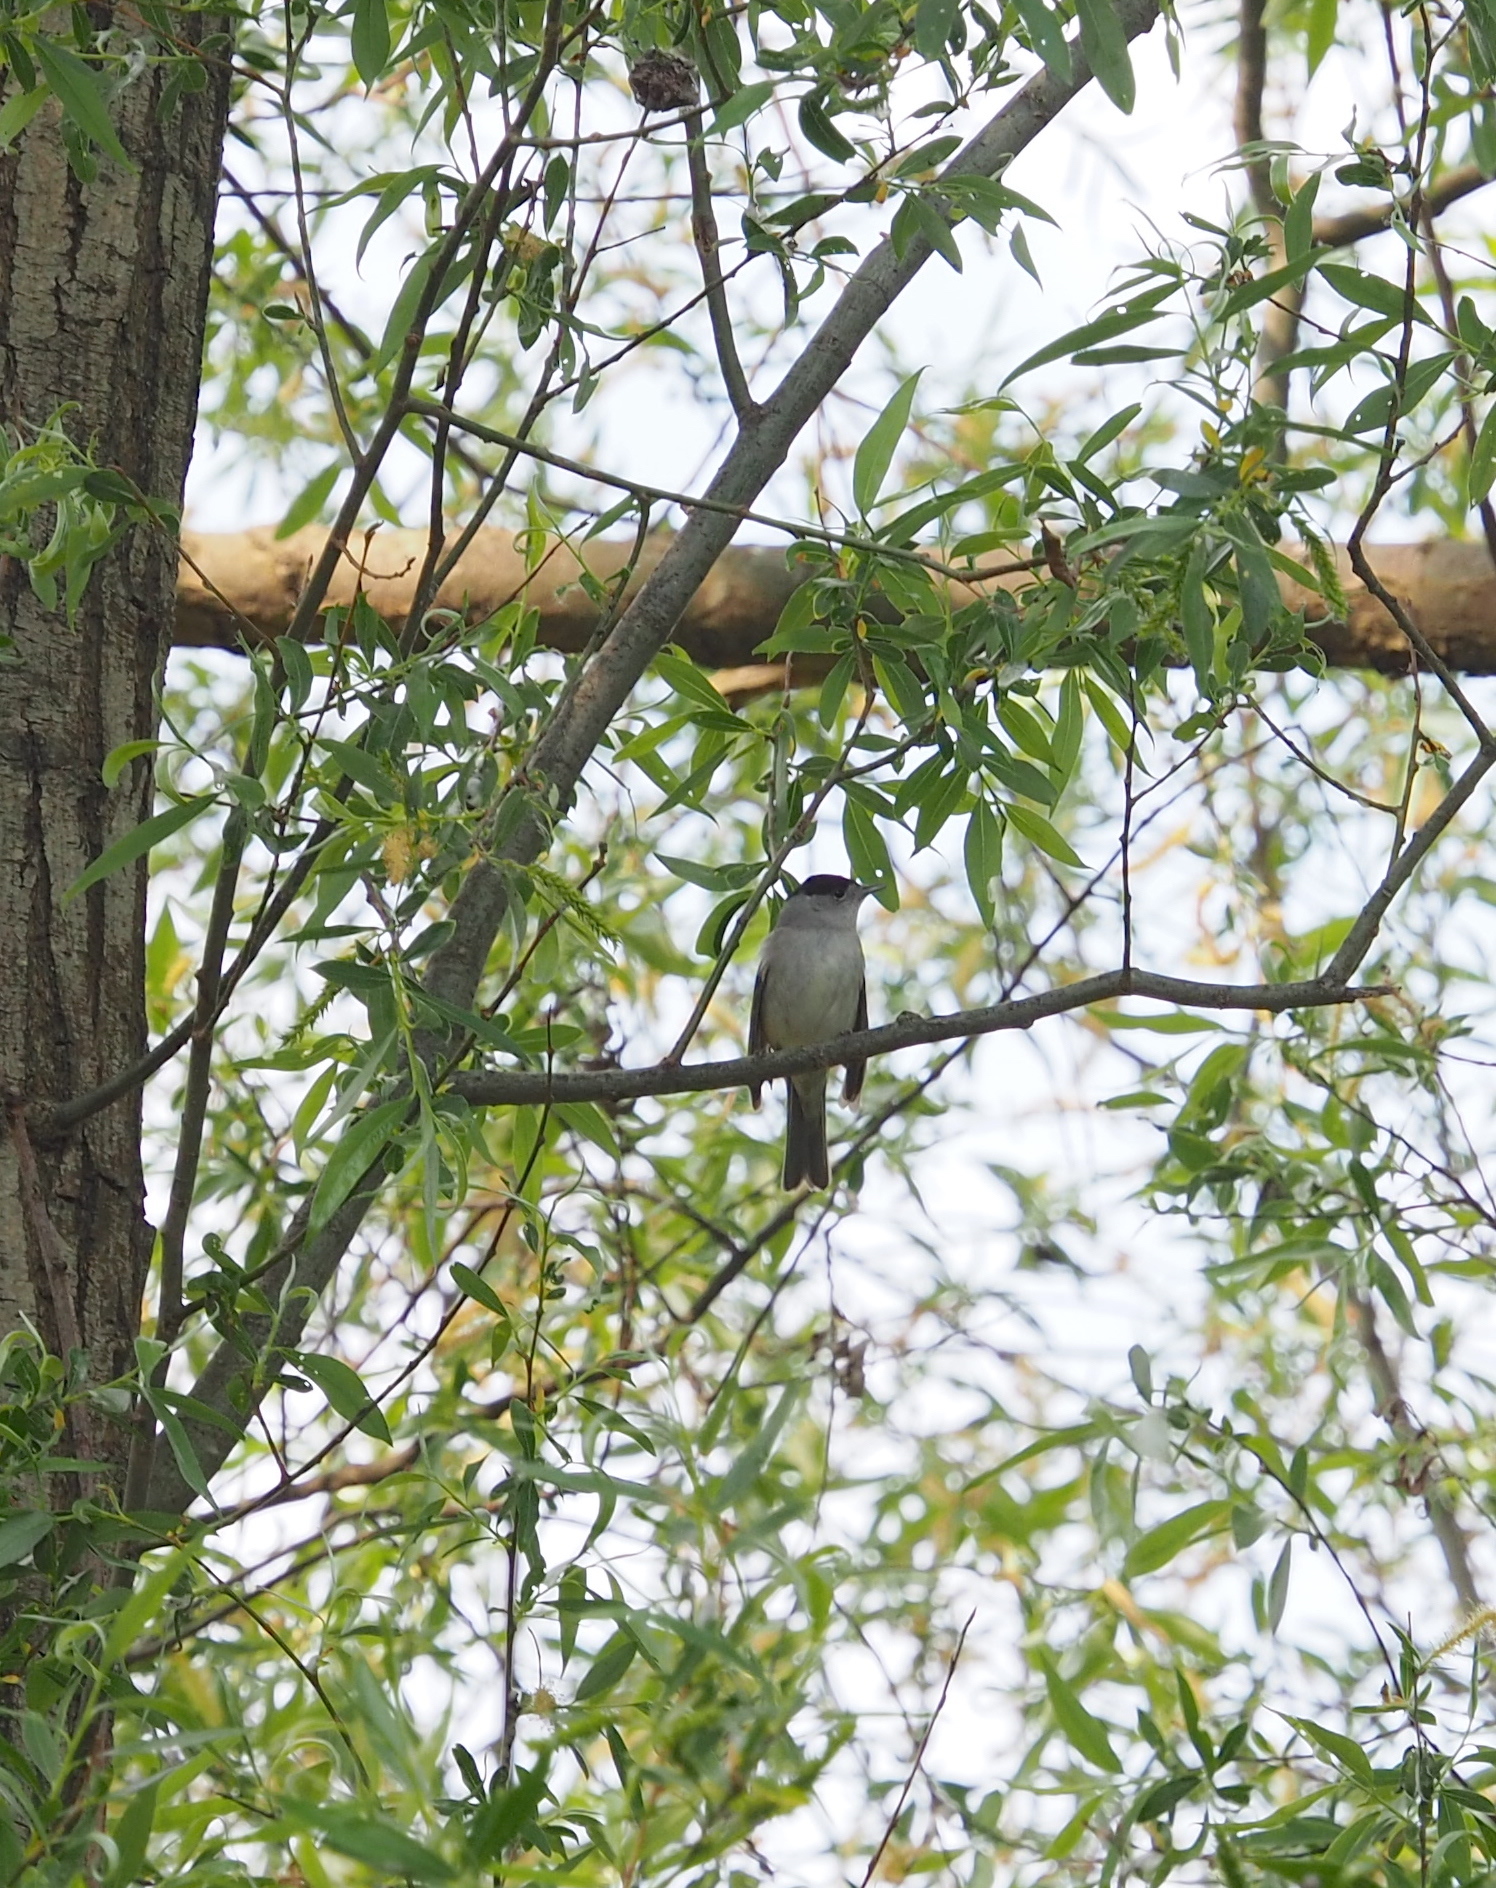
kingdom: Animalia
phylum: Chordata
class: Aves
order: Passeriformes
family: Sylviidae
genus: Sylvia
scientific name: Sylvia atricapilla
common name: Eurasian blackcap
